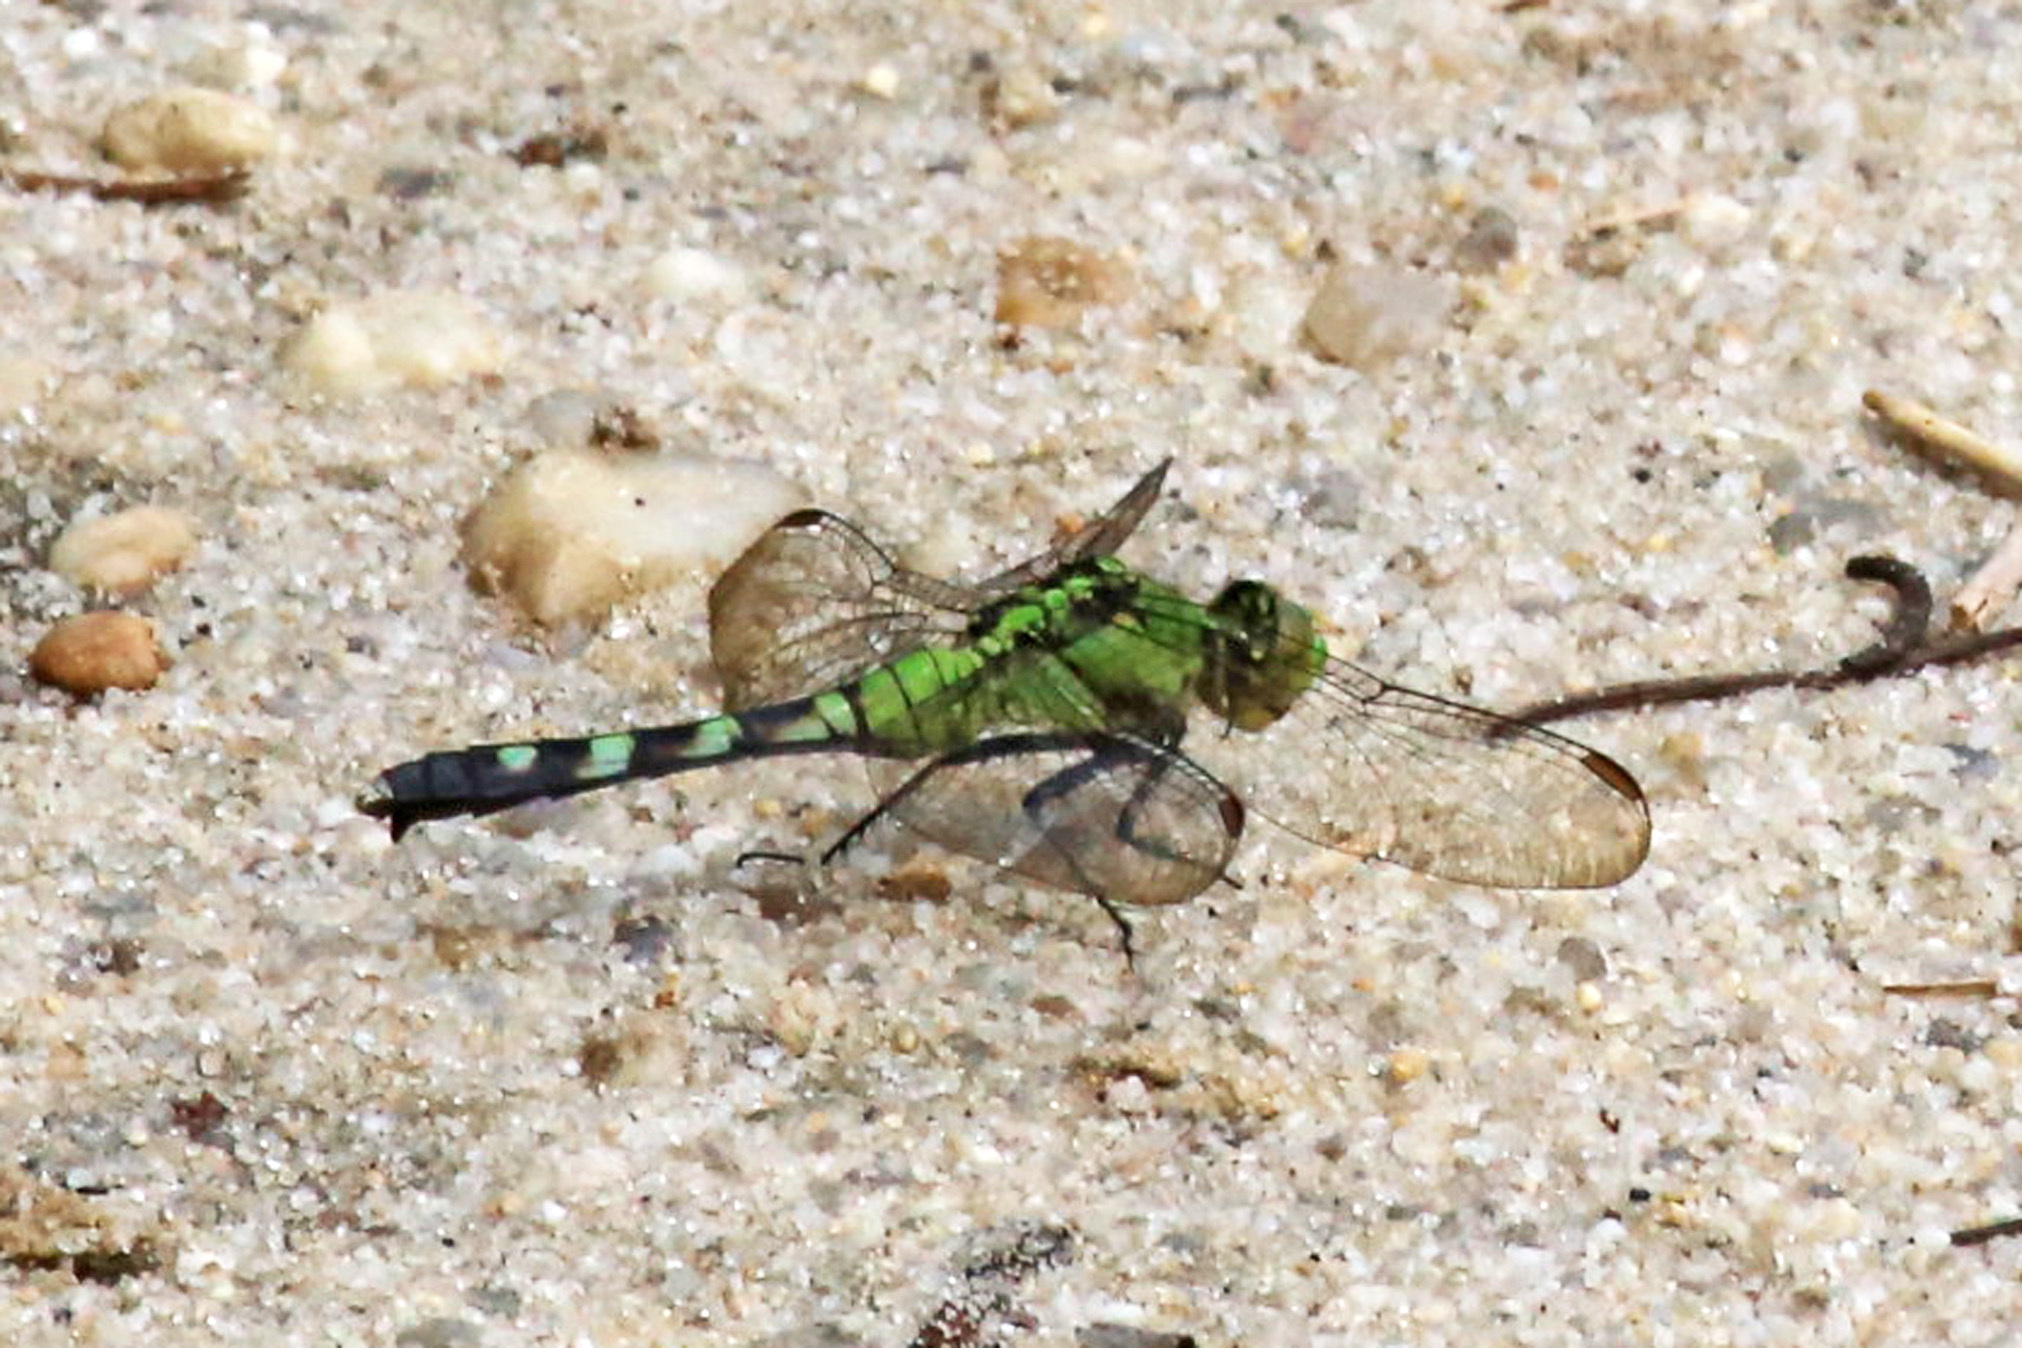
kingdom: Animalia
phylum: Arthropoda
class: Insecta
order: Odonata
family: Libellulidae
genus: Erythemis
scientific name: Erythemis simplicicollis
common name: Eastern pondhawk
